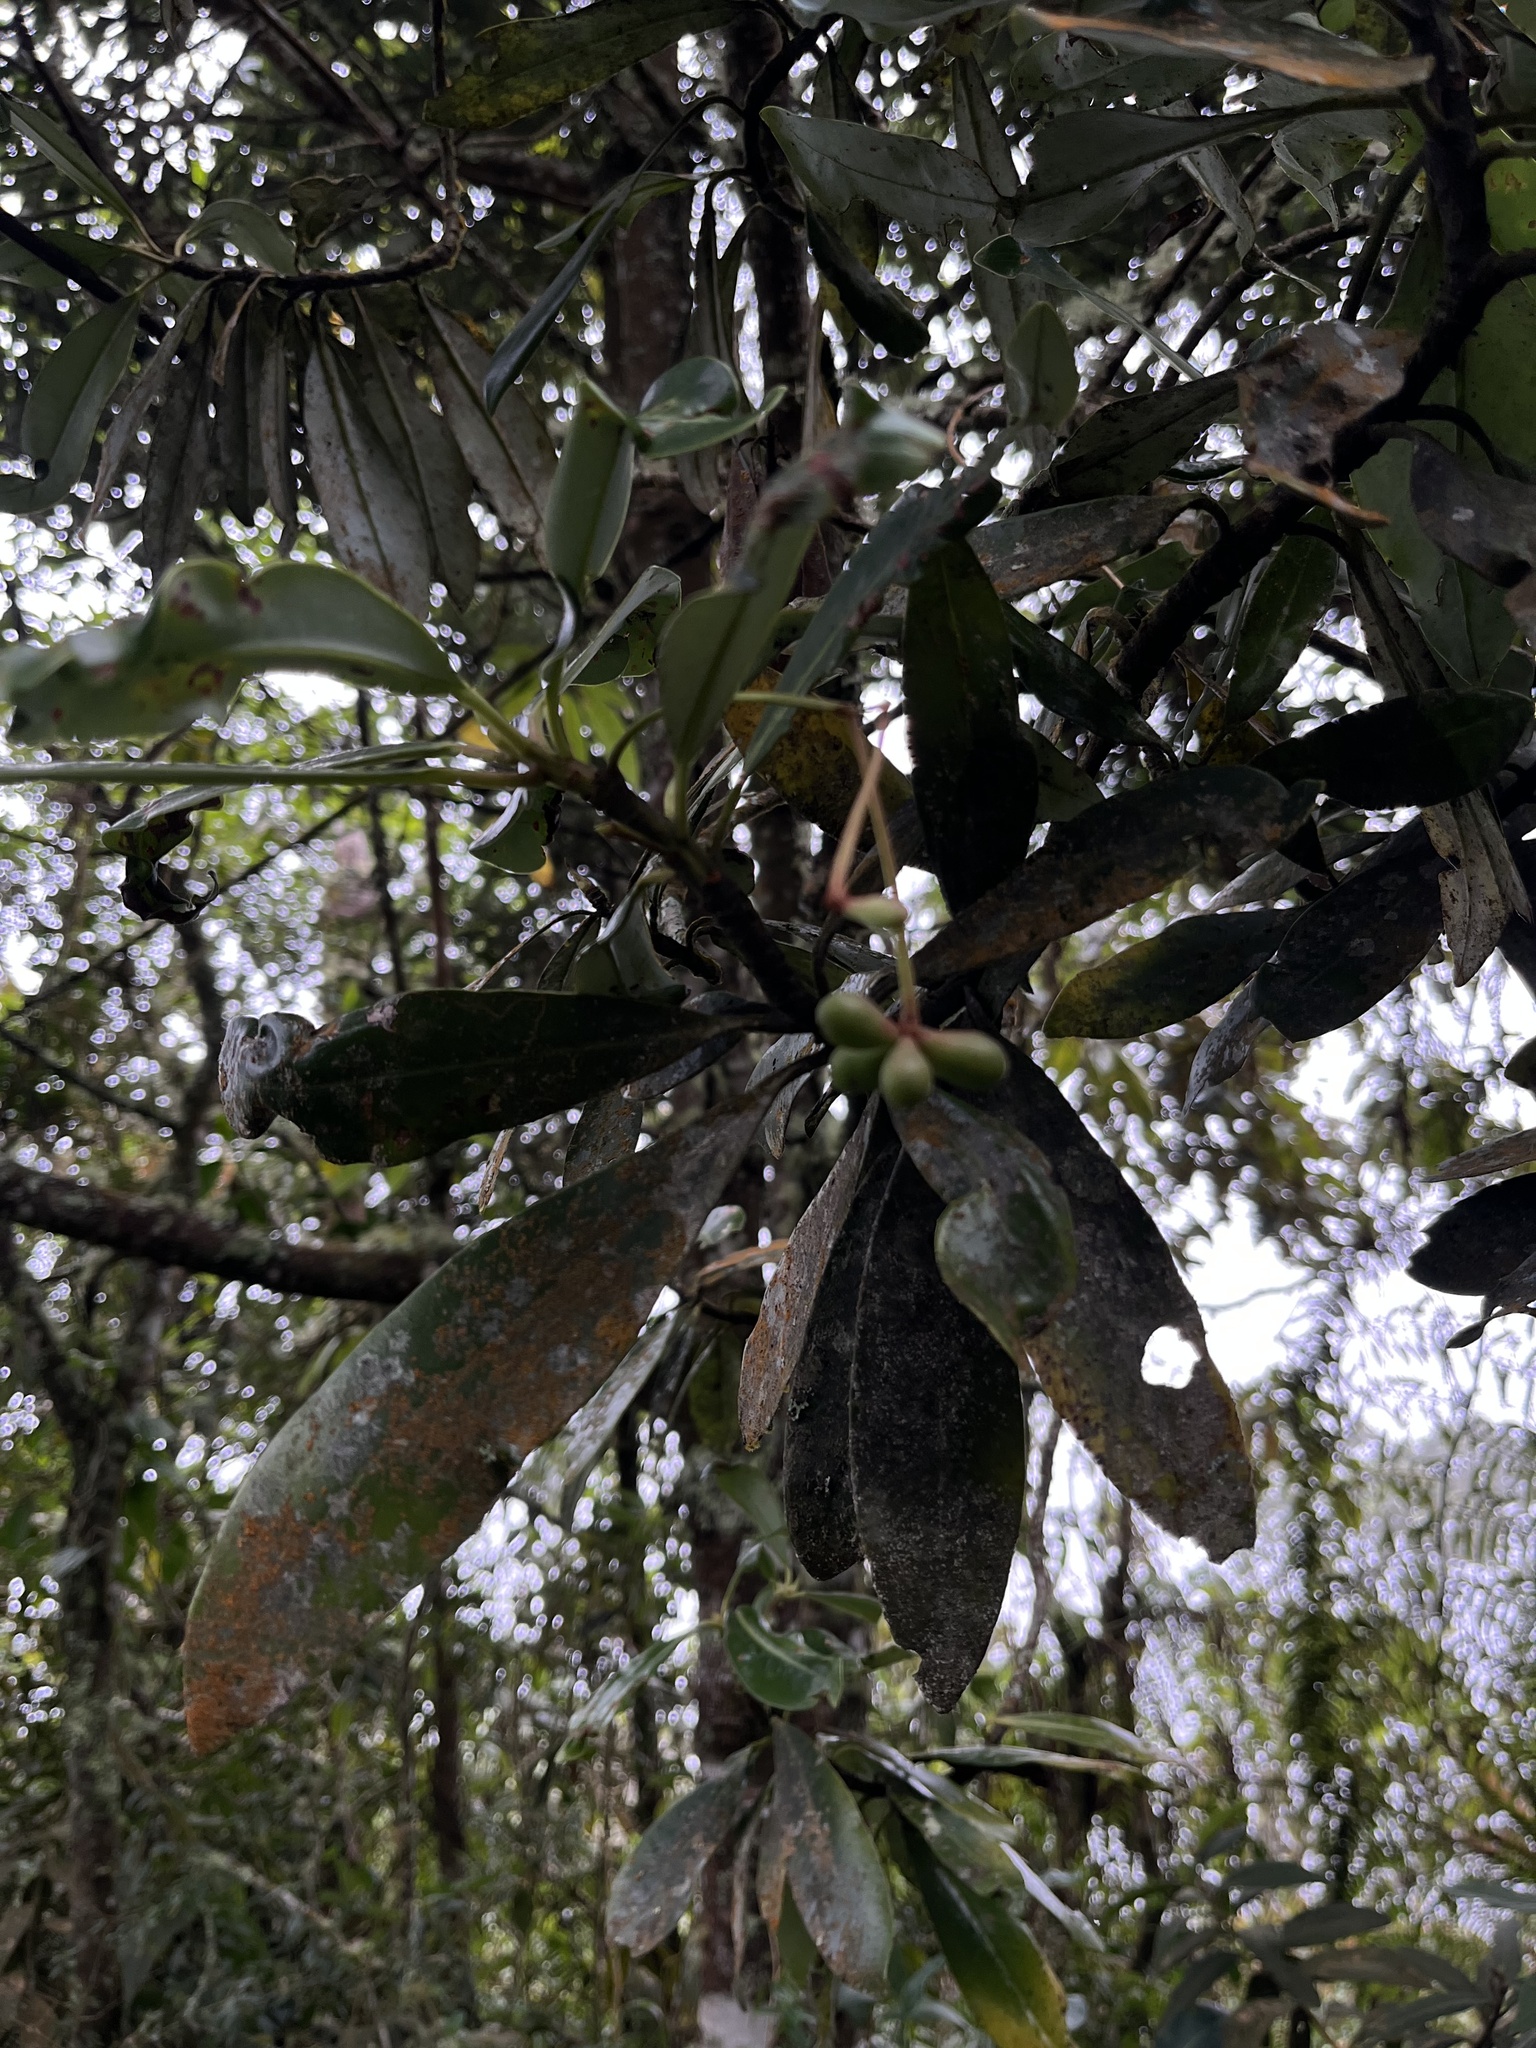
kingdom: Plantae
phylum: Tracheophyta
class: Magnoliopsida
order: Canellales
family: Winteraceae
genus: Drimys
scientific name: Drimys granadensis
